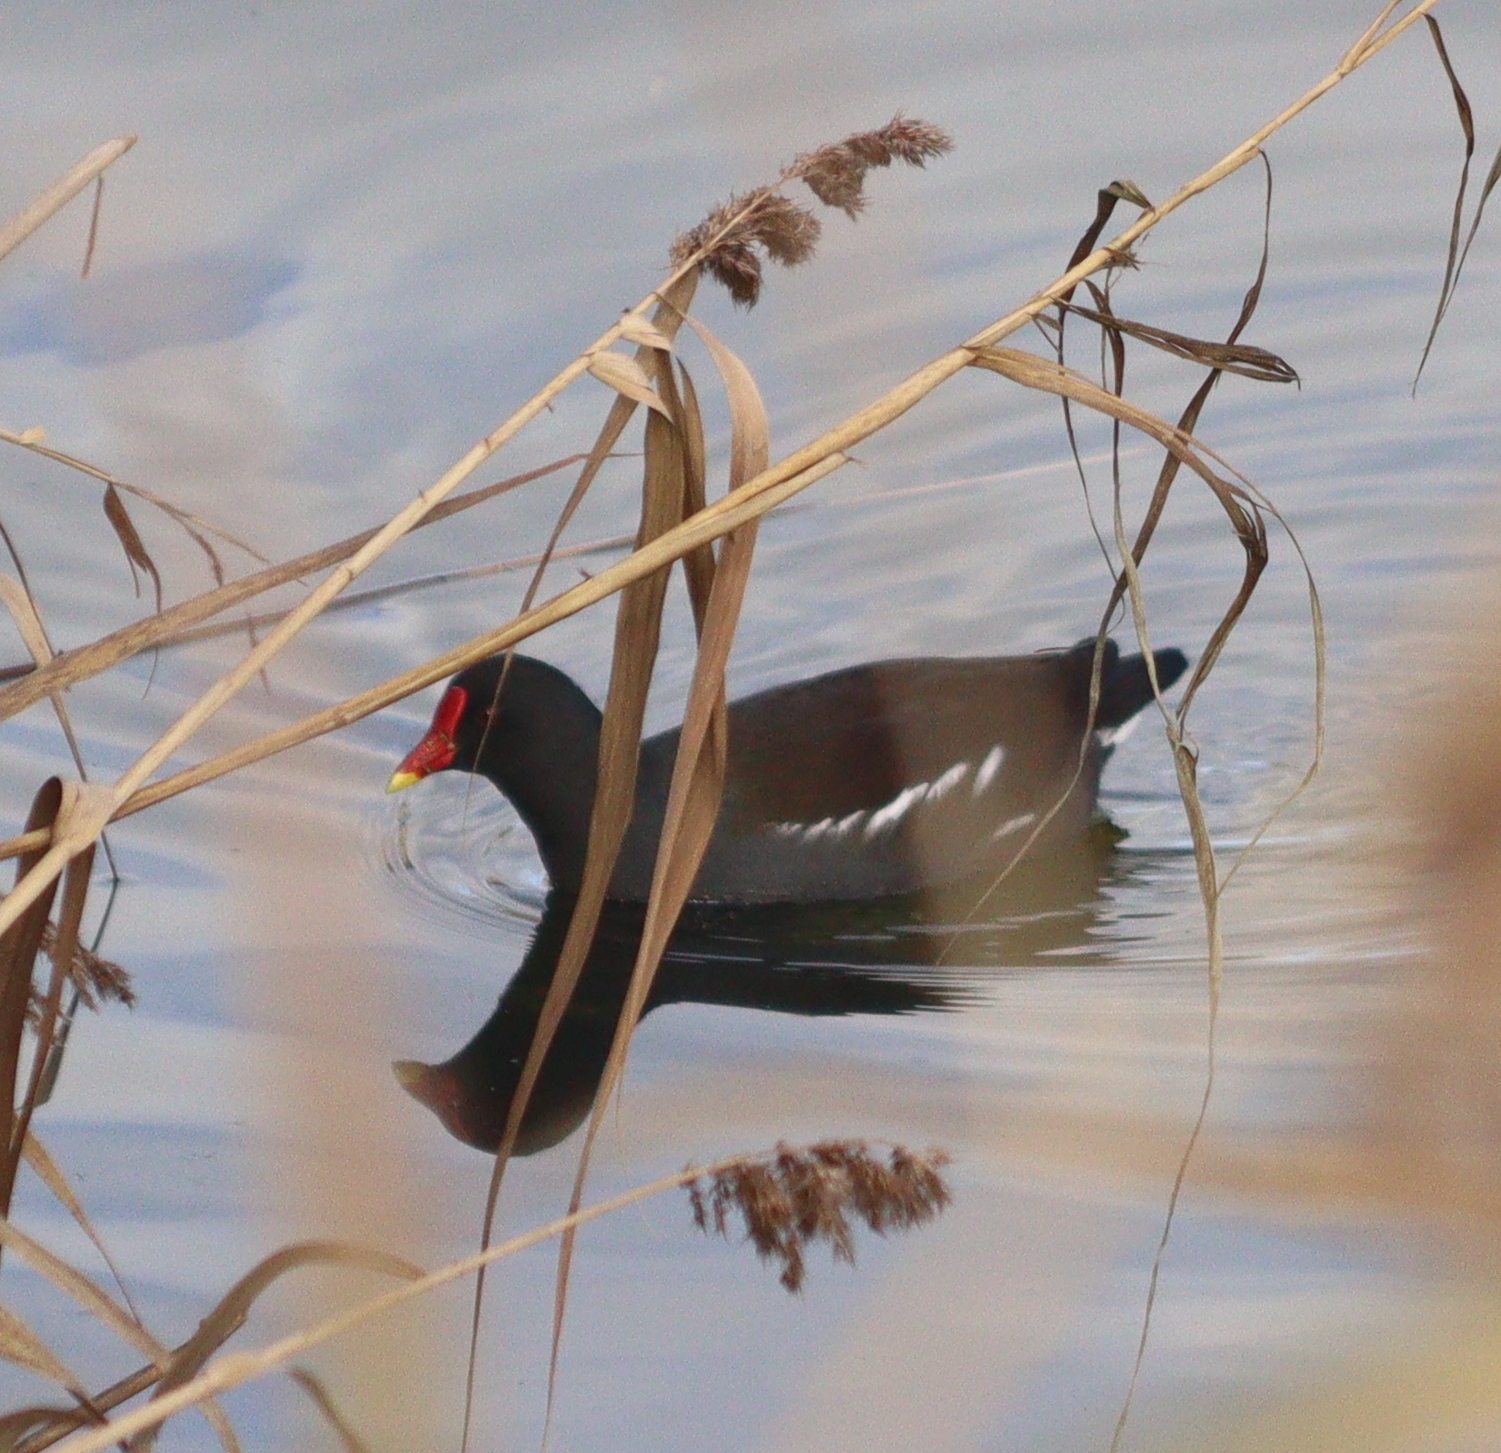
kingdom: Animalia
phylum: Chordata
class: Aves
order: Gruiformes
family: Rallidae
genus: Gallinula
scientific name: Gallinula chloropus
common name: Common moorhen
